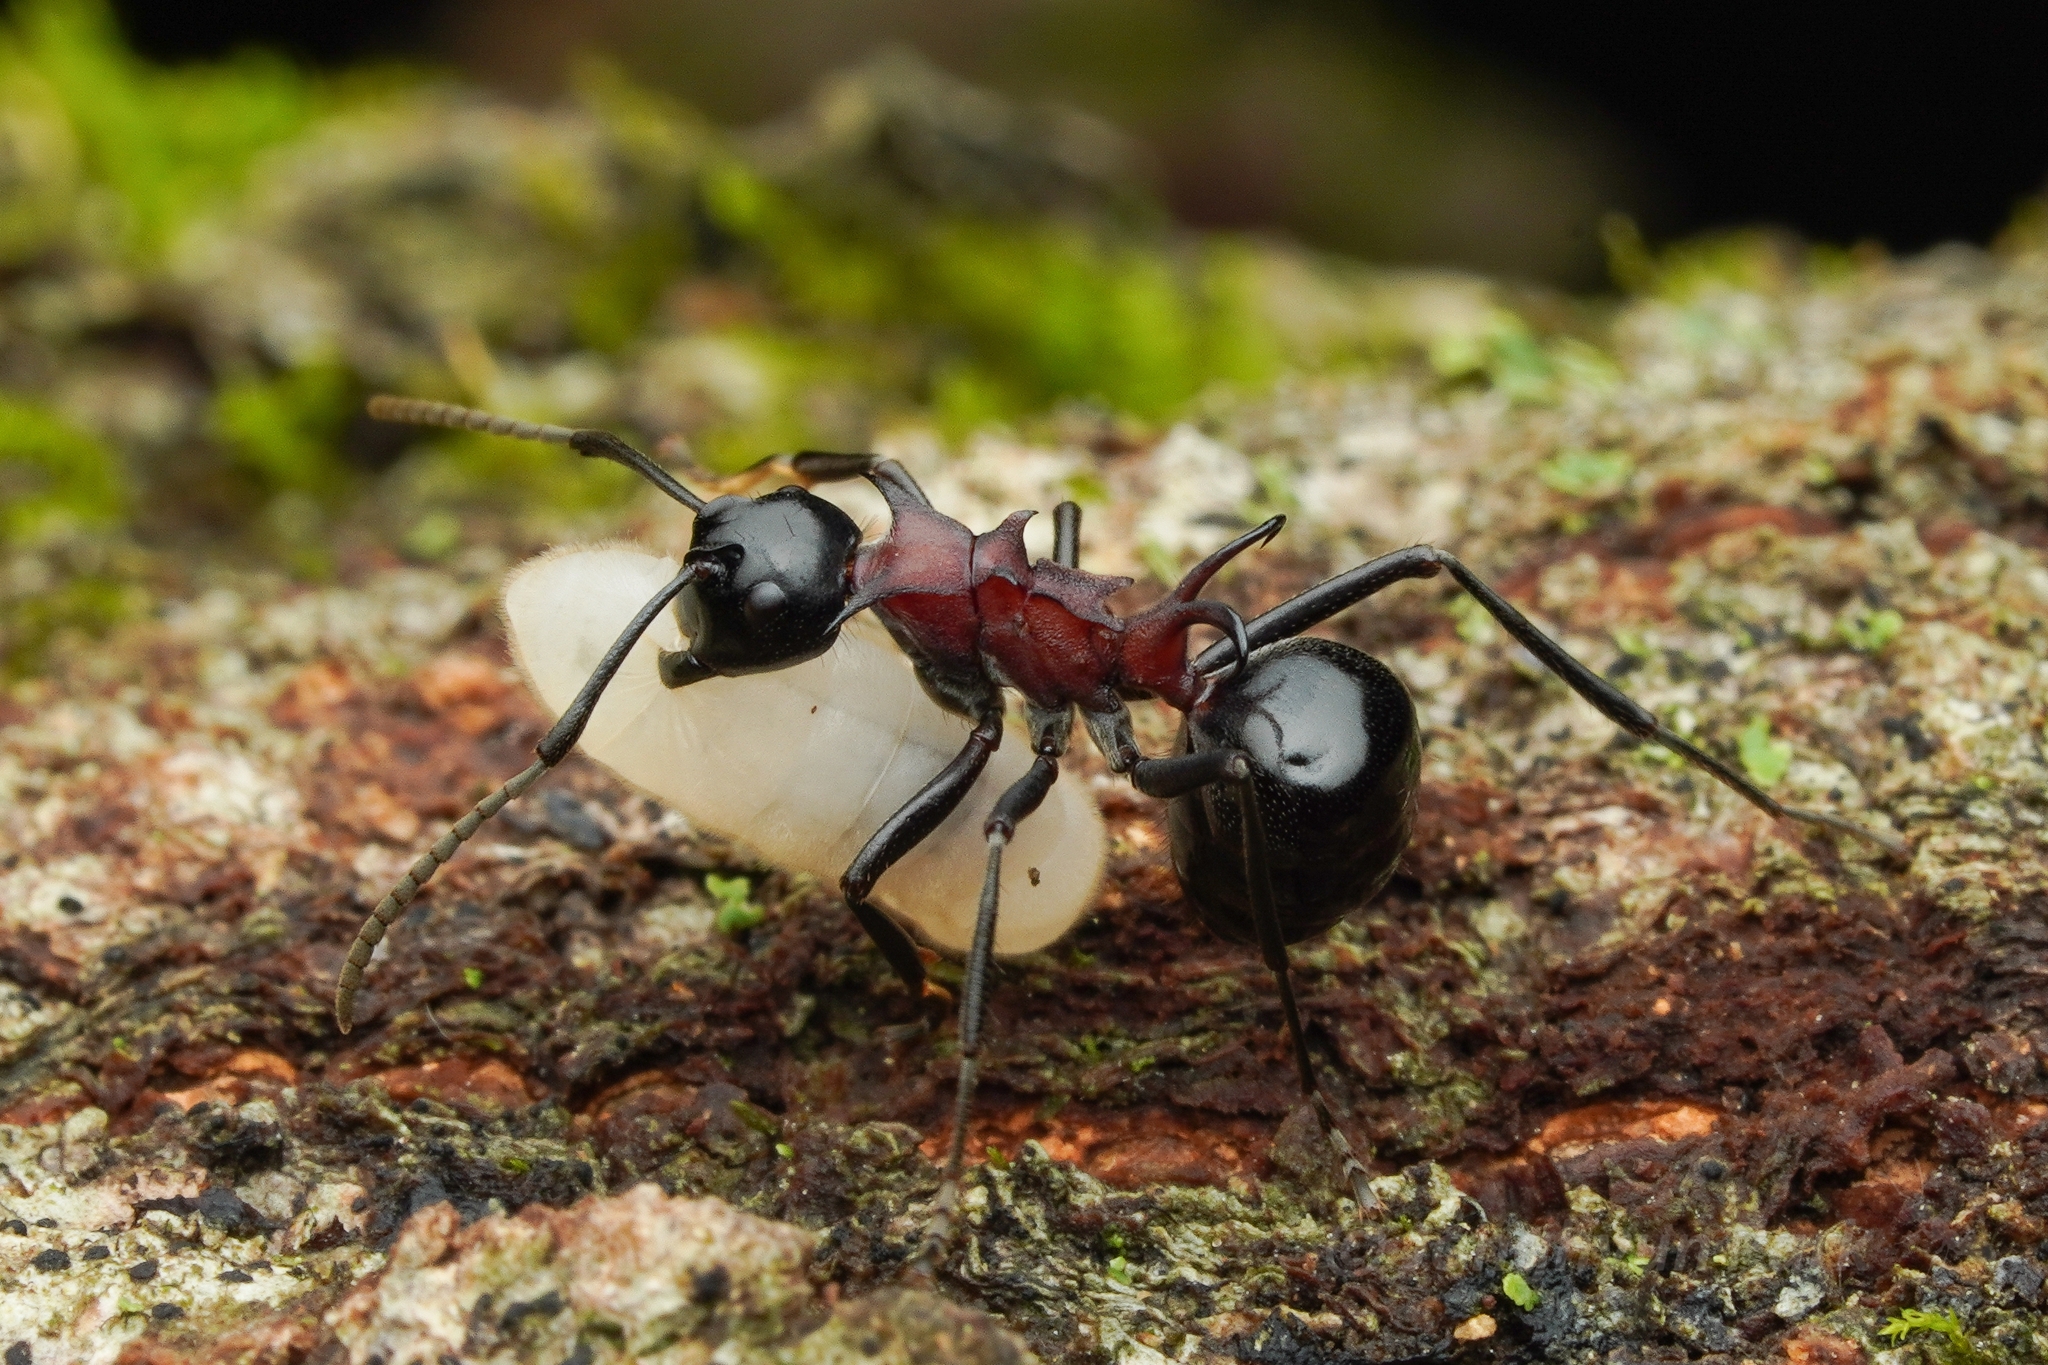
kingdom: Animalia
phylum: Arthropoda
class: Insecta
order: Hymenoptera
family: Formicidae
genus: Polyrhachis
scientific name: Polyrhachis lamellidens
